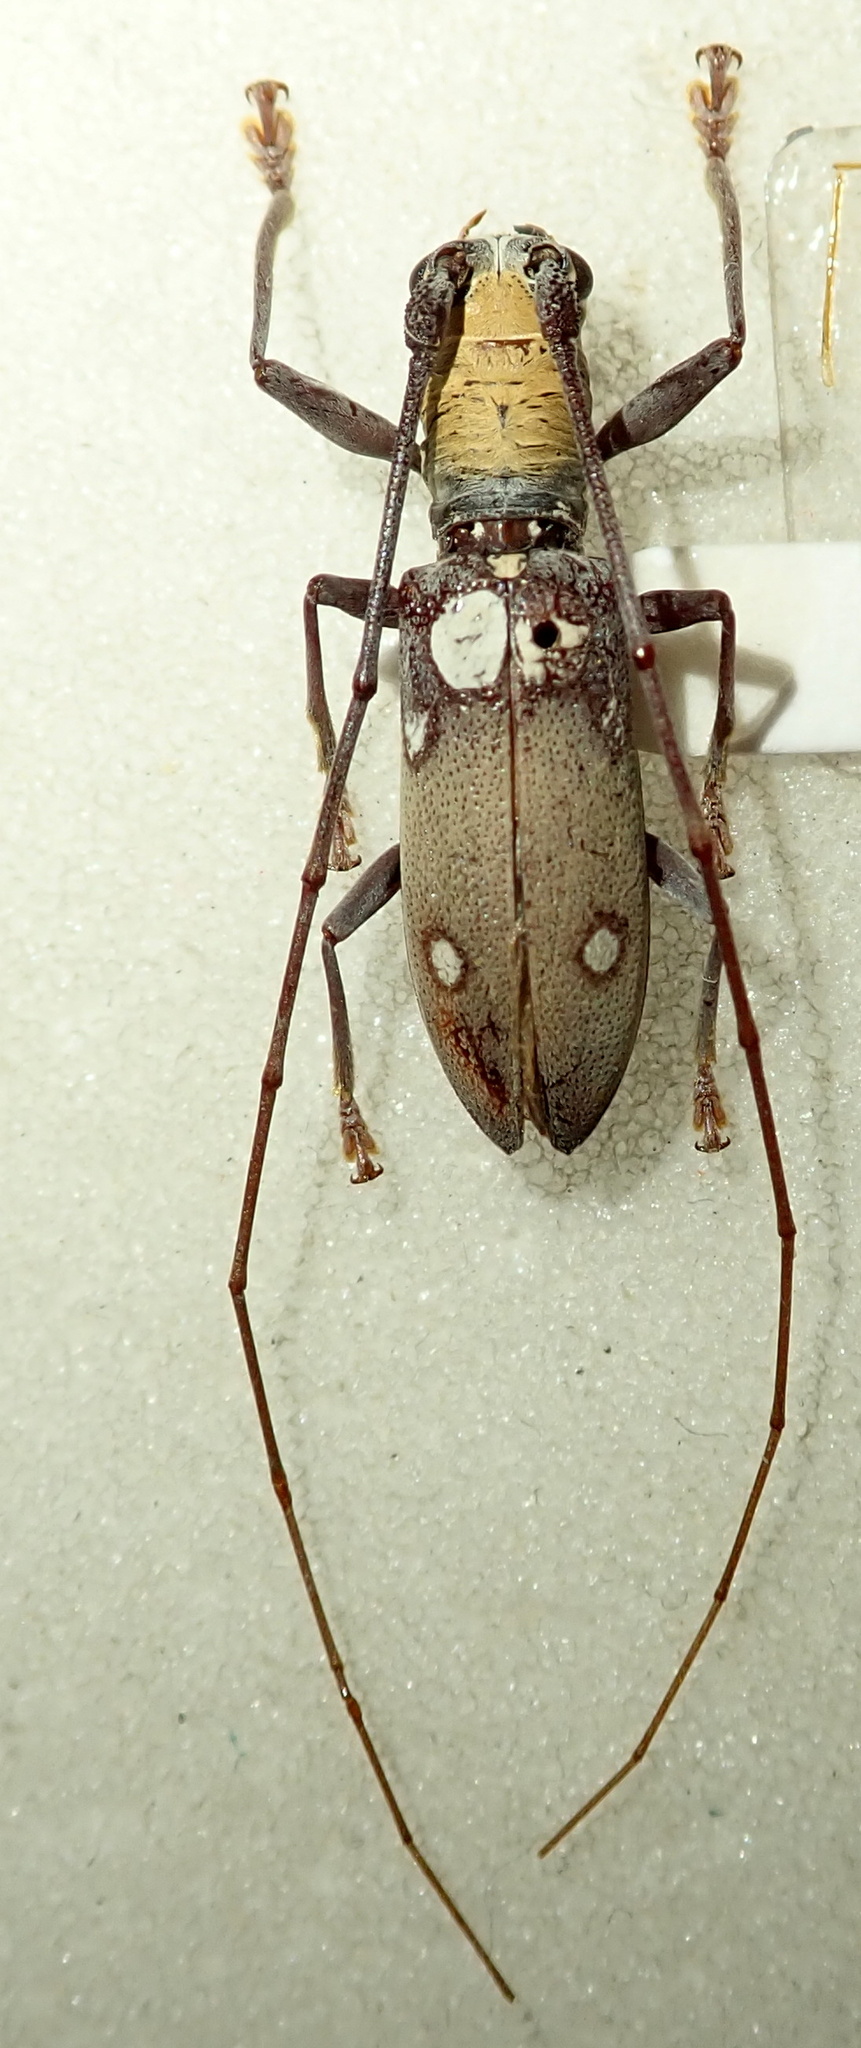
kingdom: Animalia
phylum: Arthropoda
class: Insecta
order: Coleoptera
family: Cerambycidae
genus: Olenecamptus
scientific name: Olenecamptus bilobus
